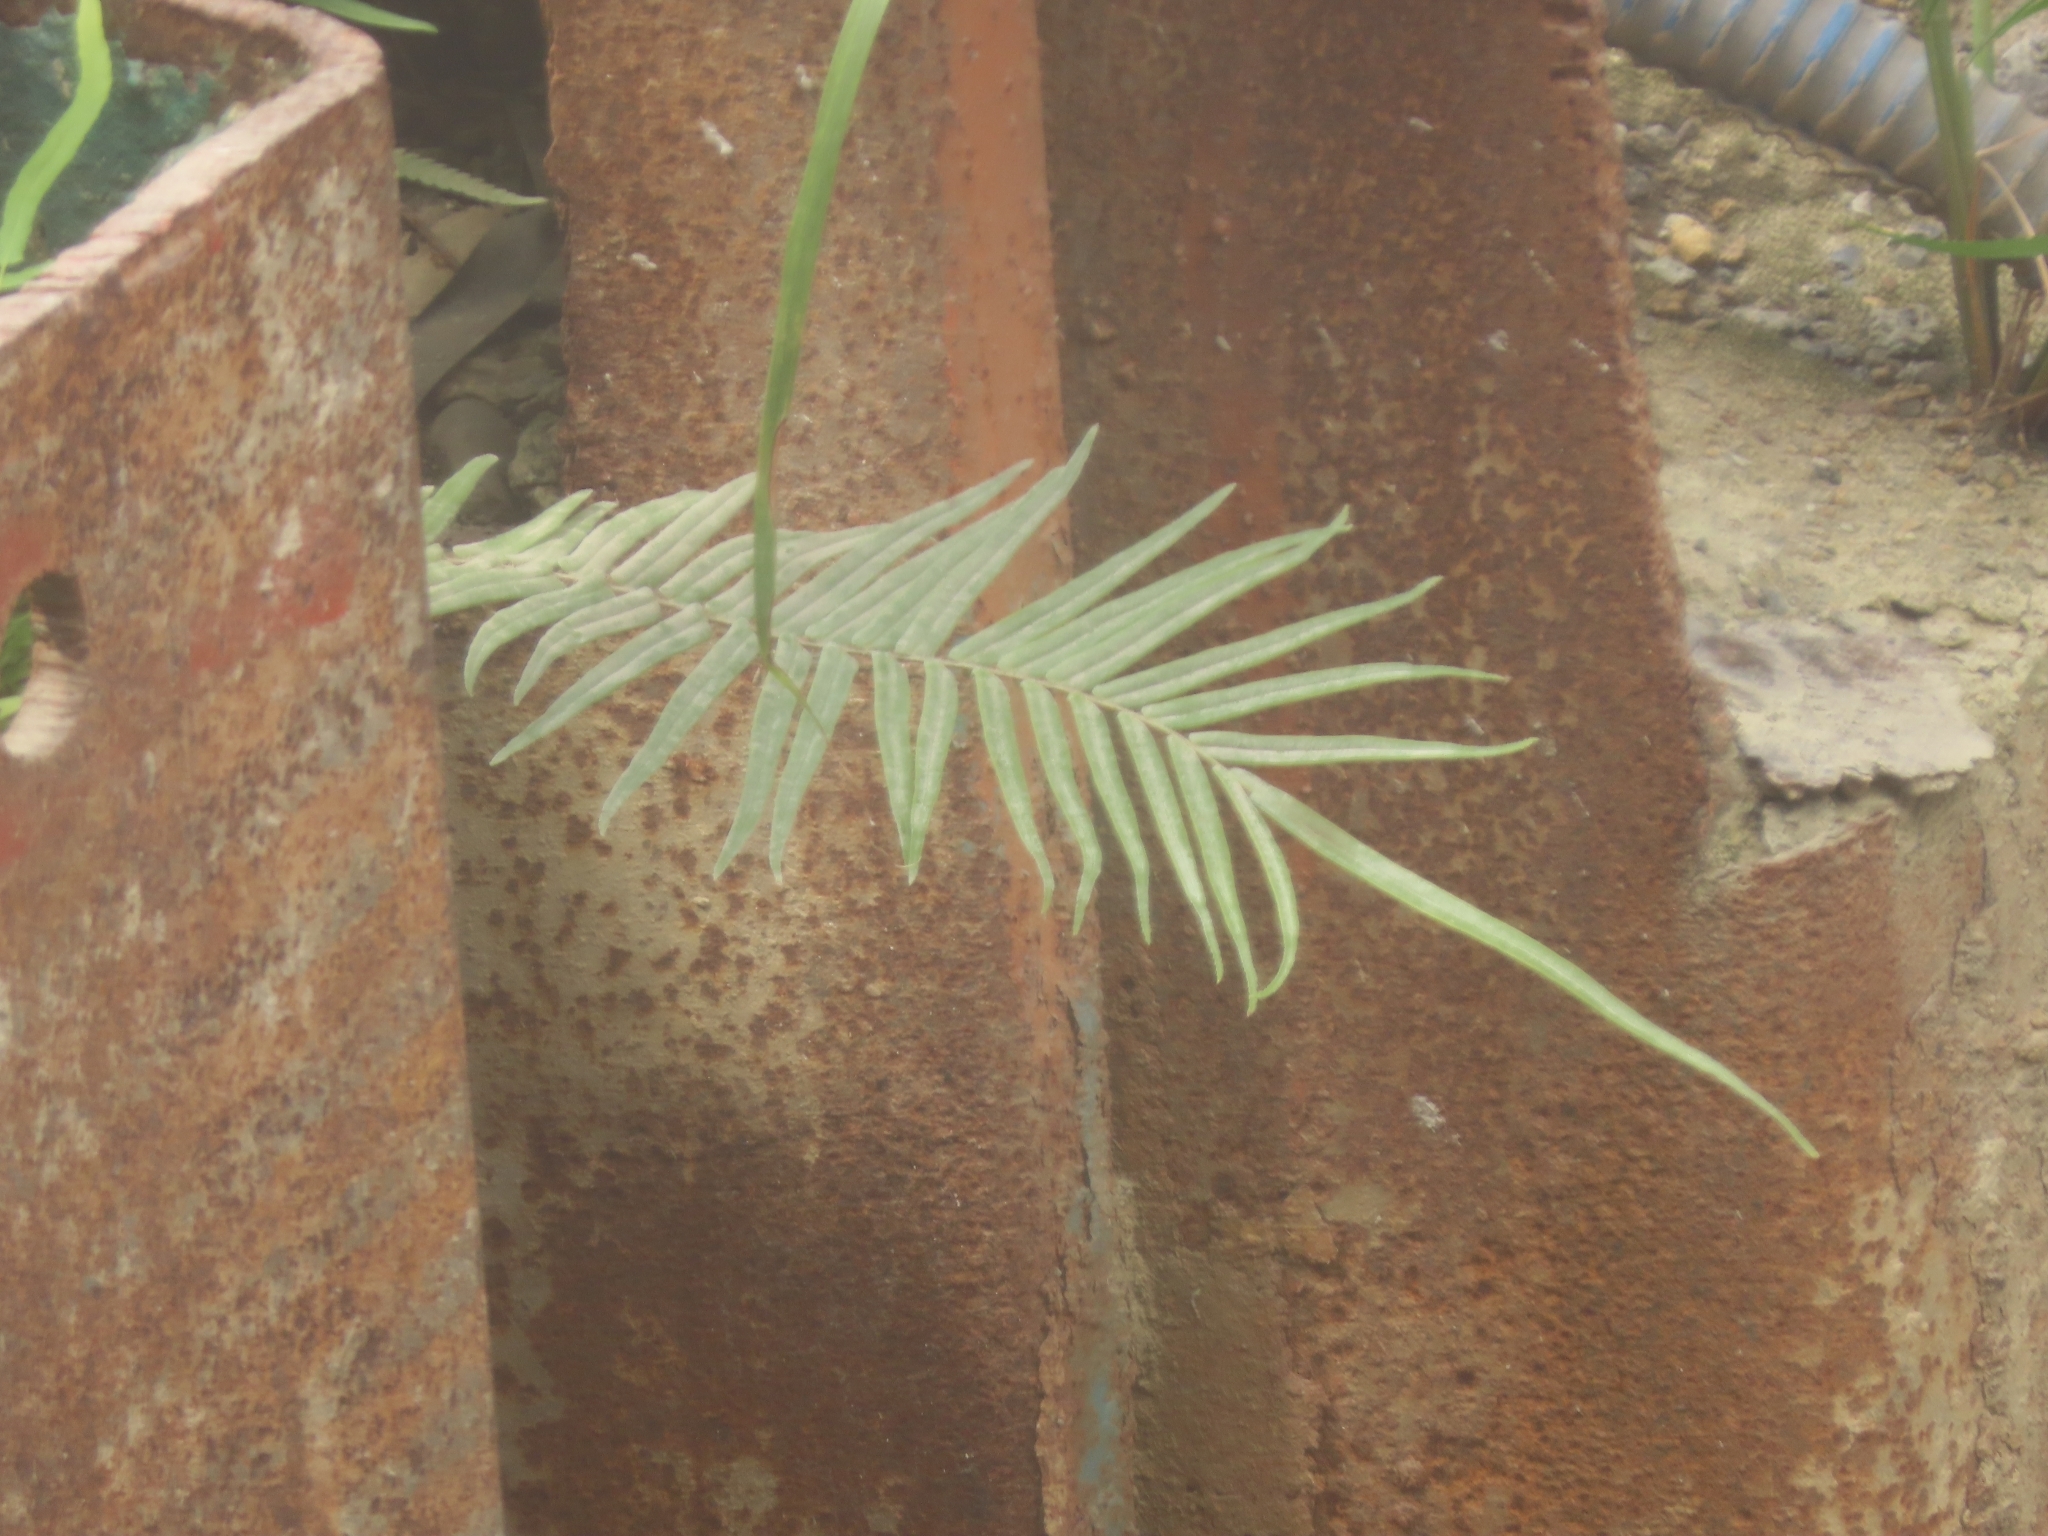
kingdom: Plantae
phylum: Tracheophyta
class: Polypodiopsida
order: Polypodiales
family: Pteridaceae
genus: Pteris
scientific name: Pteris vittata
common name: Ladder brake
